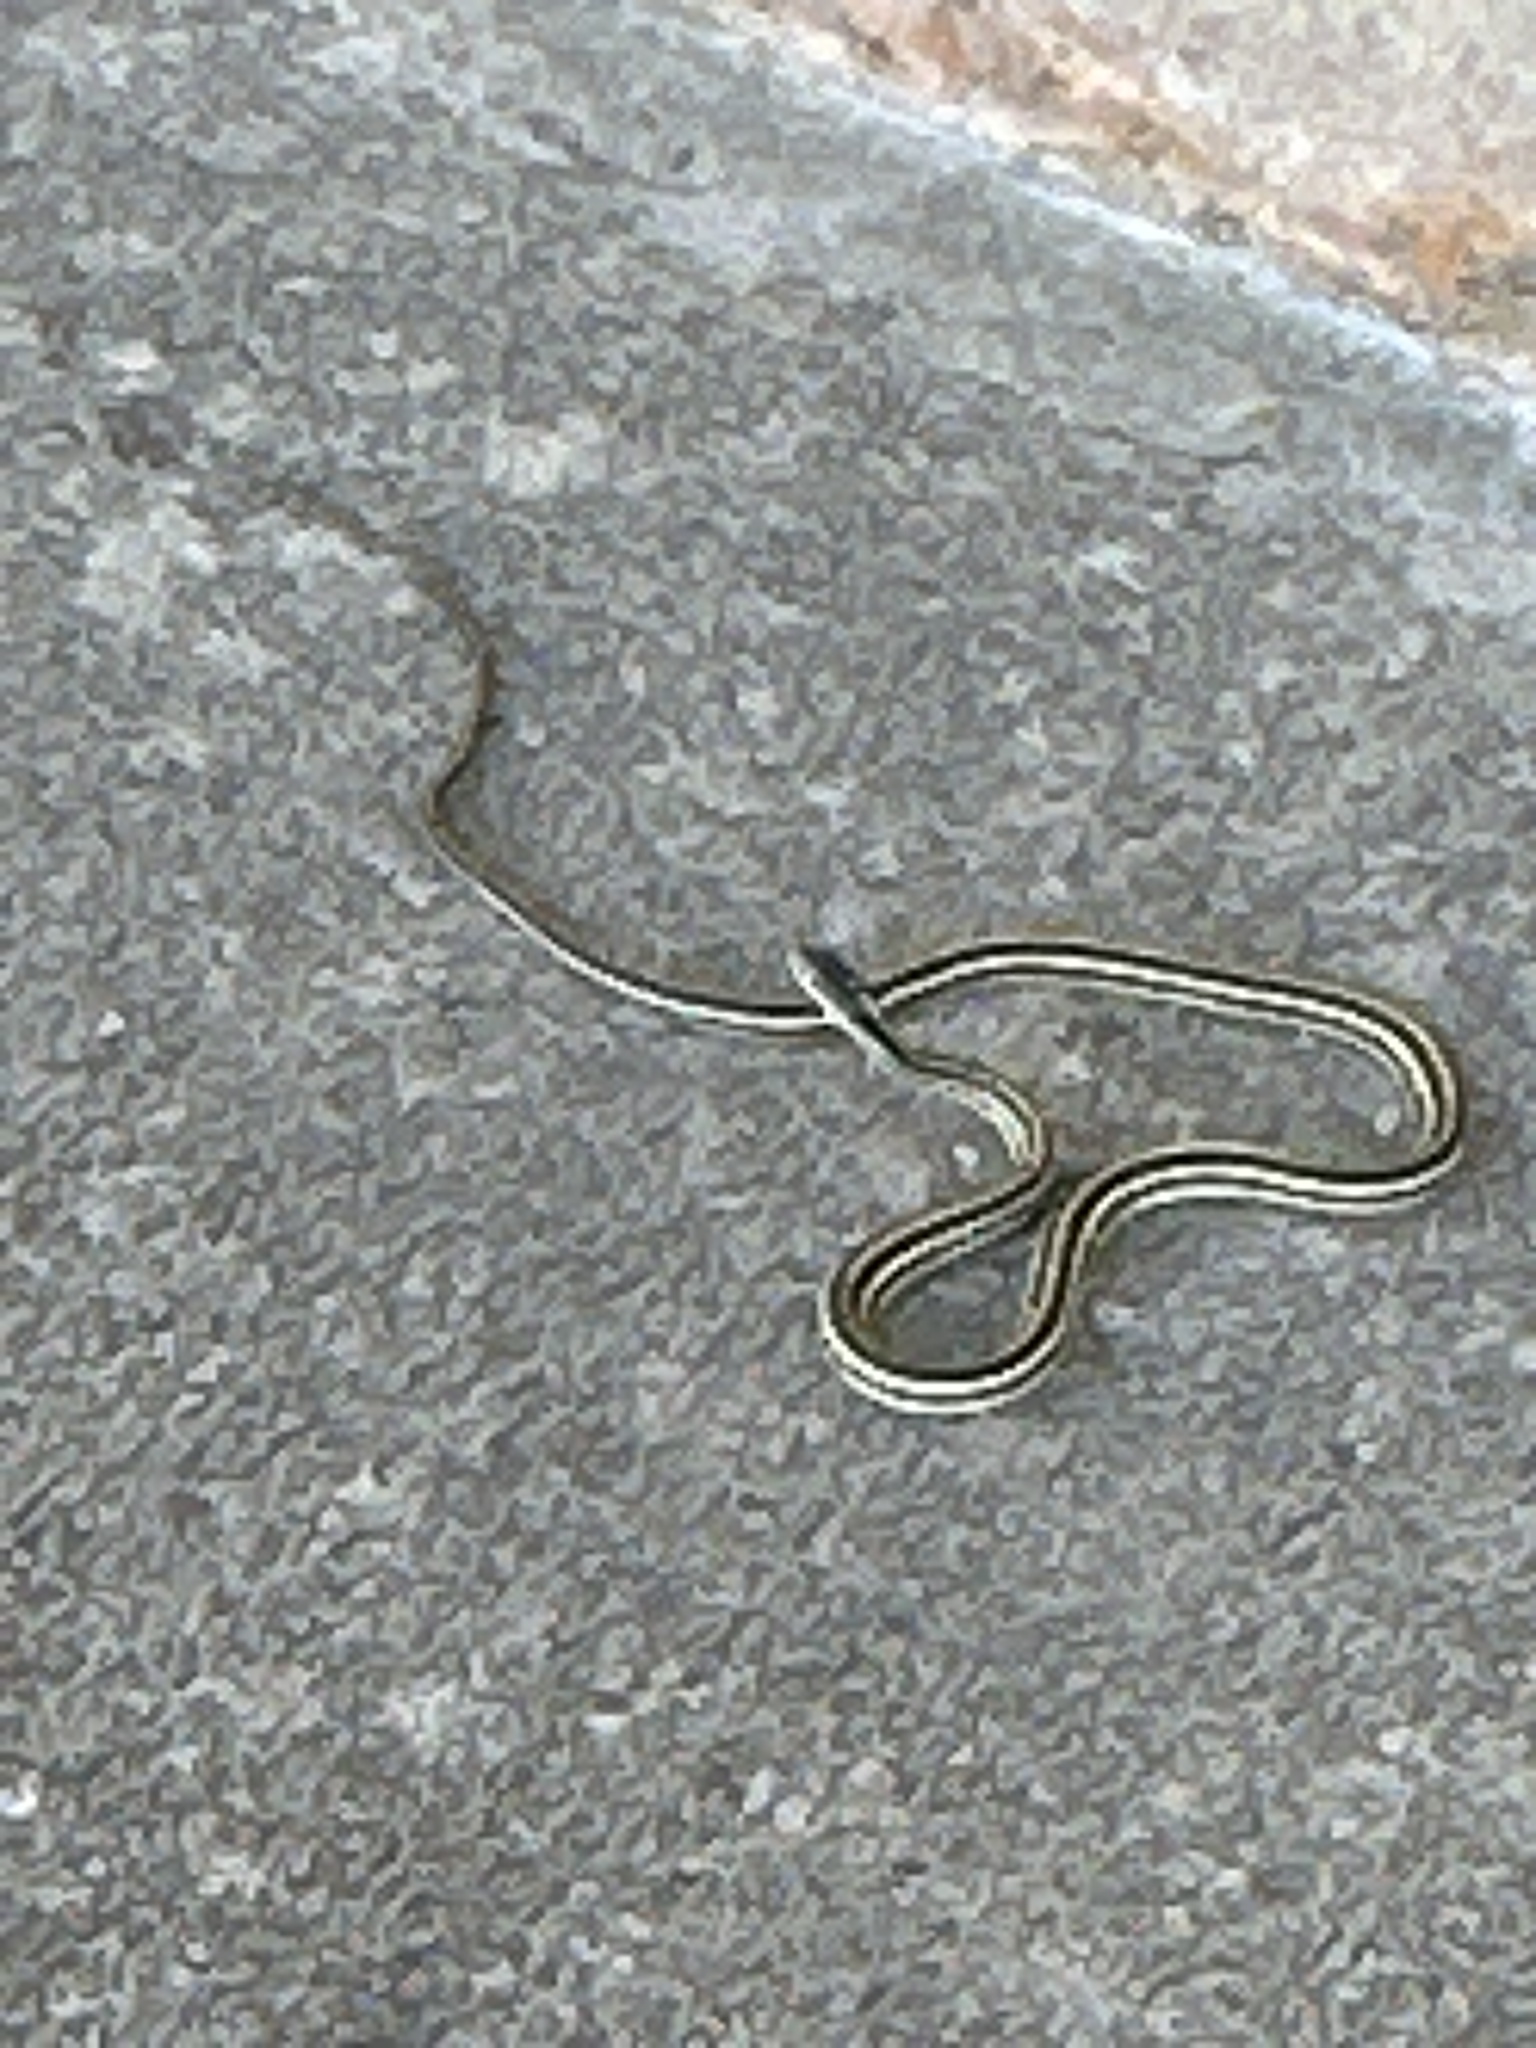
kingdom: Animalia
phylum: Chordata
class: Squamata
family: Colubridae
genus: Thamnophis
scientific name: Thamnophis proximus
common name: Western ribbon snake
